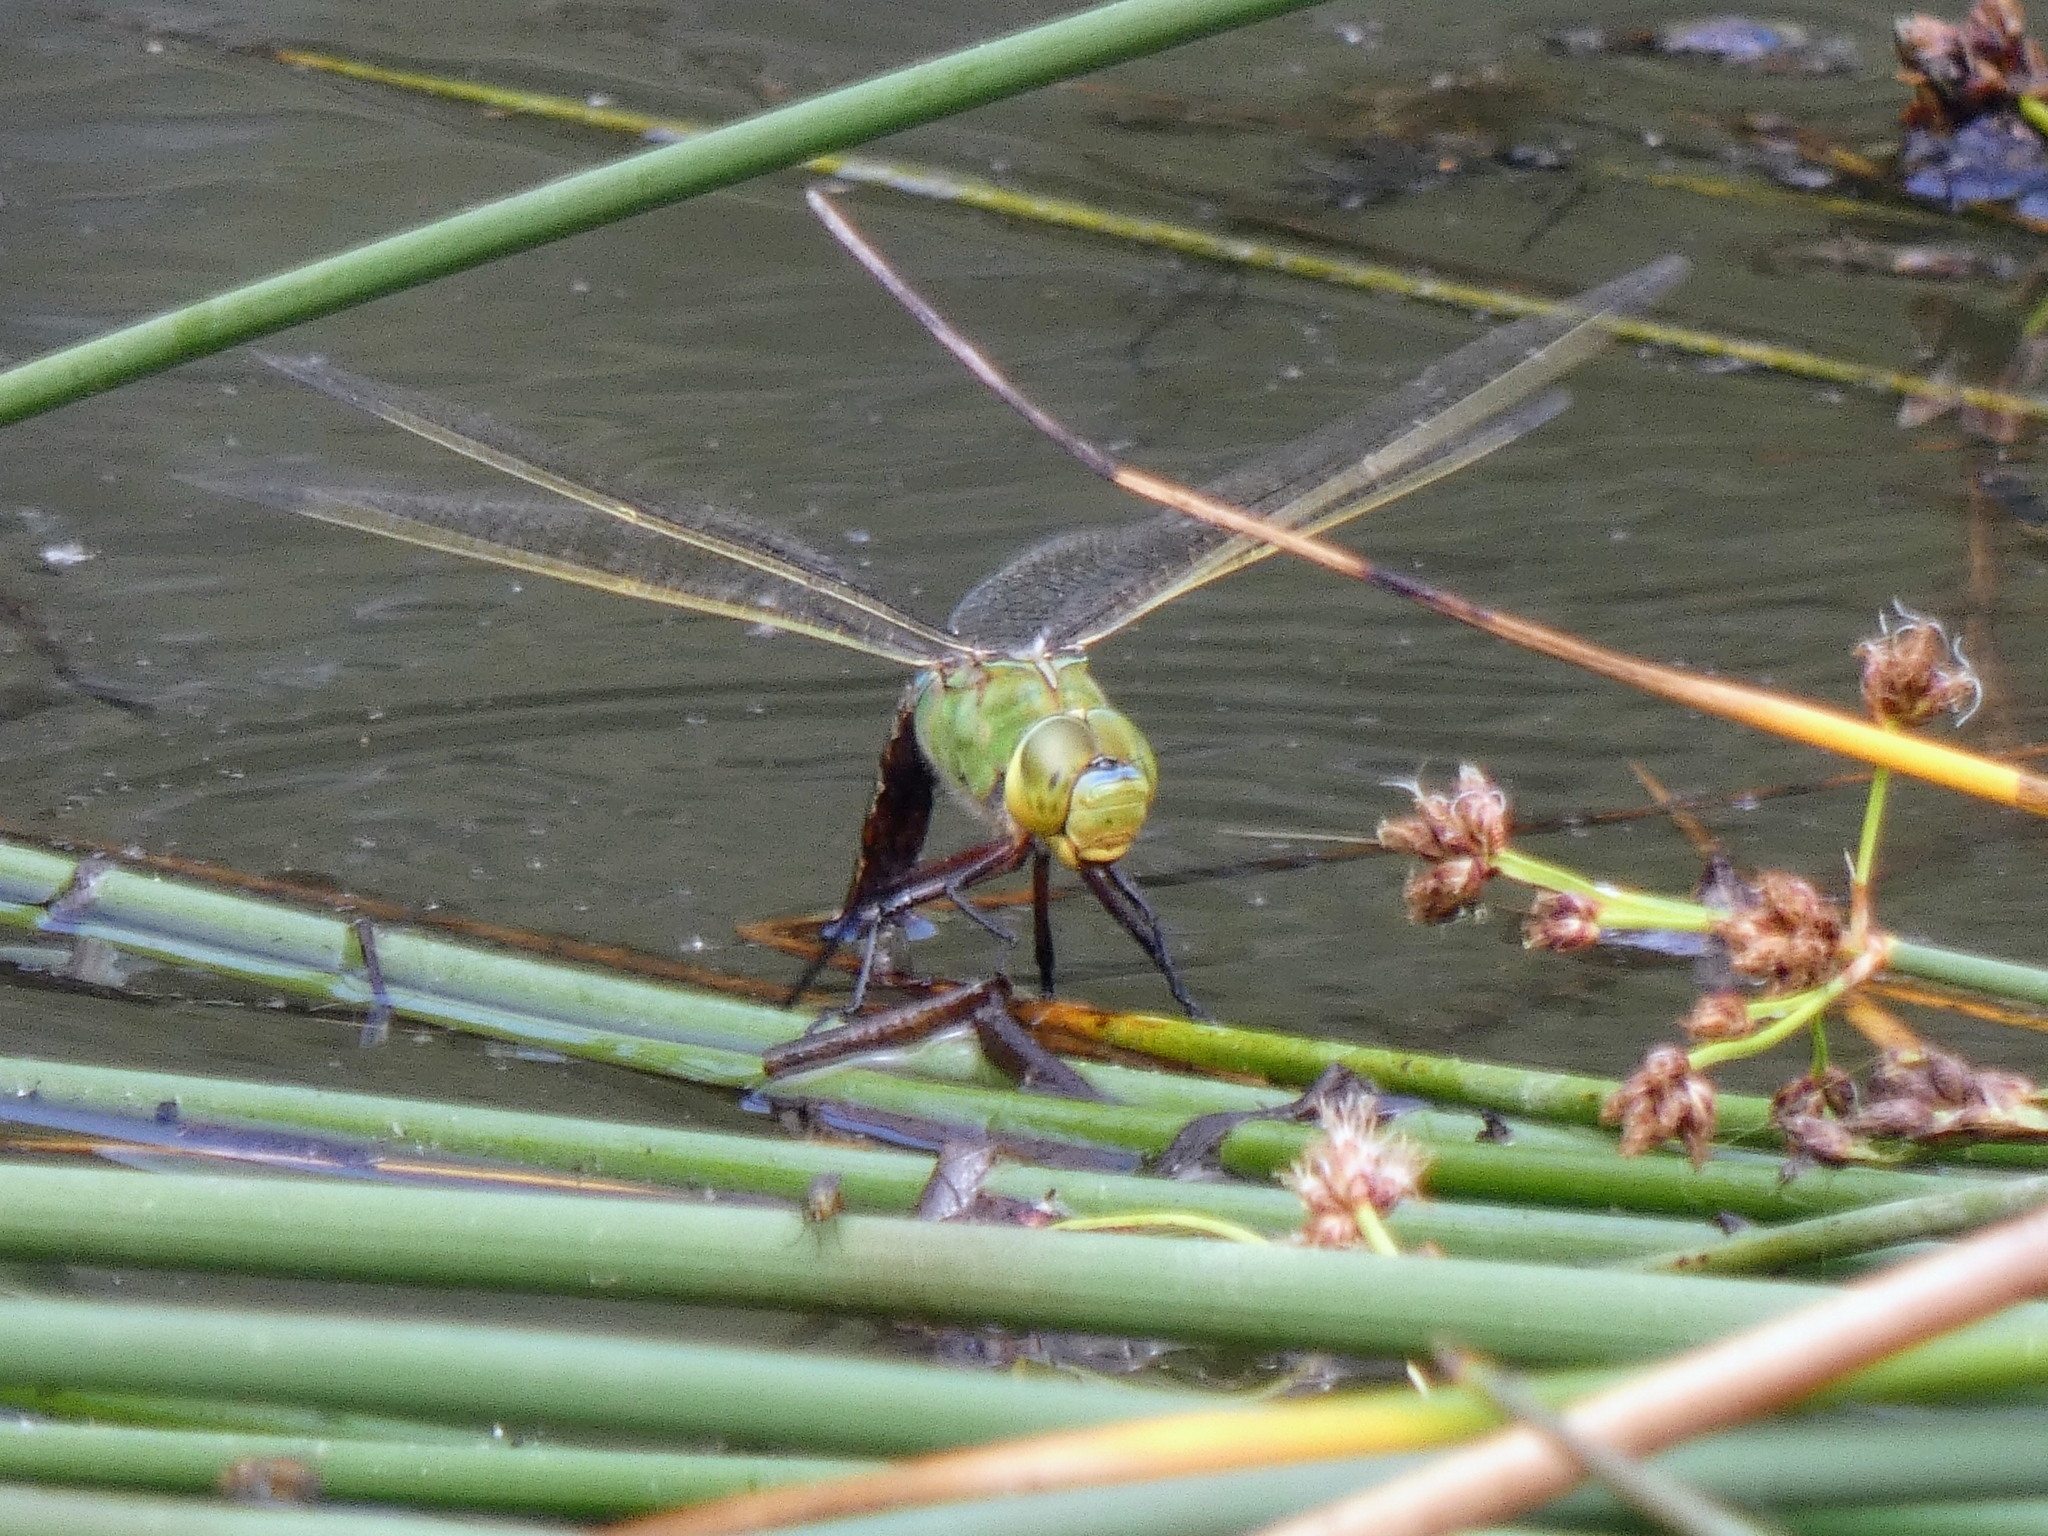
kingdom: Animalia
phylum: Arthropoda
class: Insecta
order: Odonata
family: Aeshnidae
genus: Anax
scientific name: Anax imperator
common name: Emperor dragonfly
